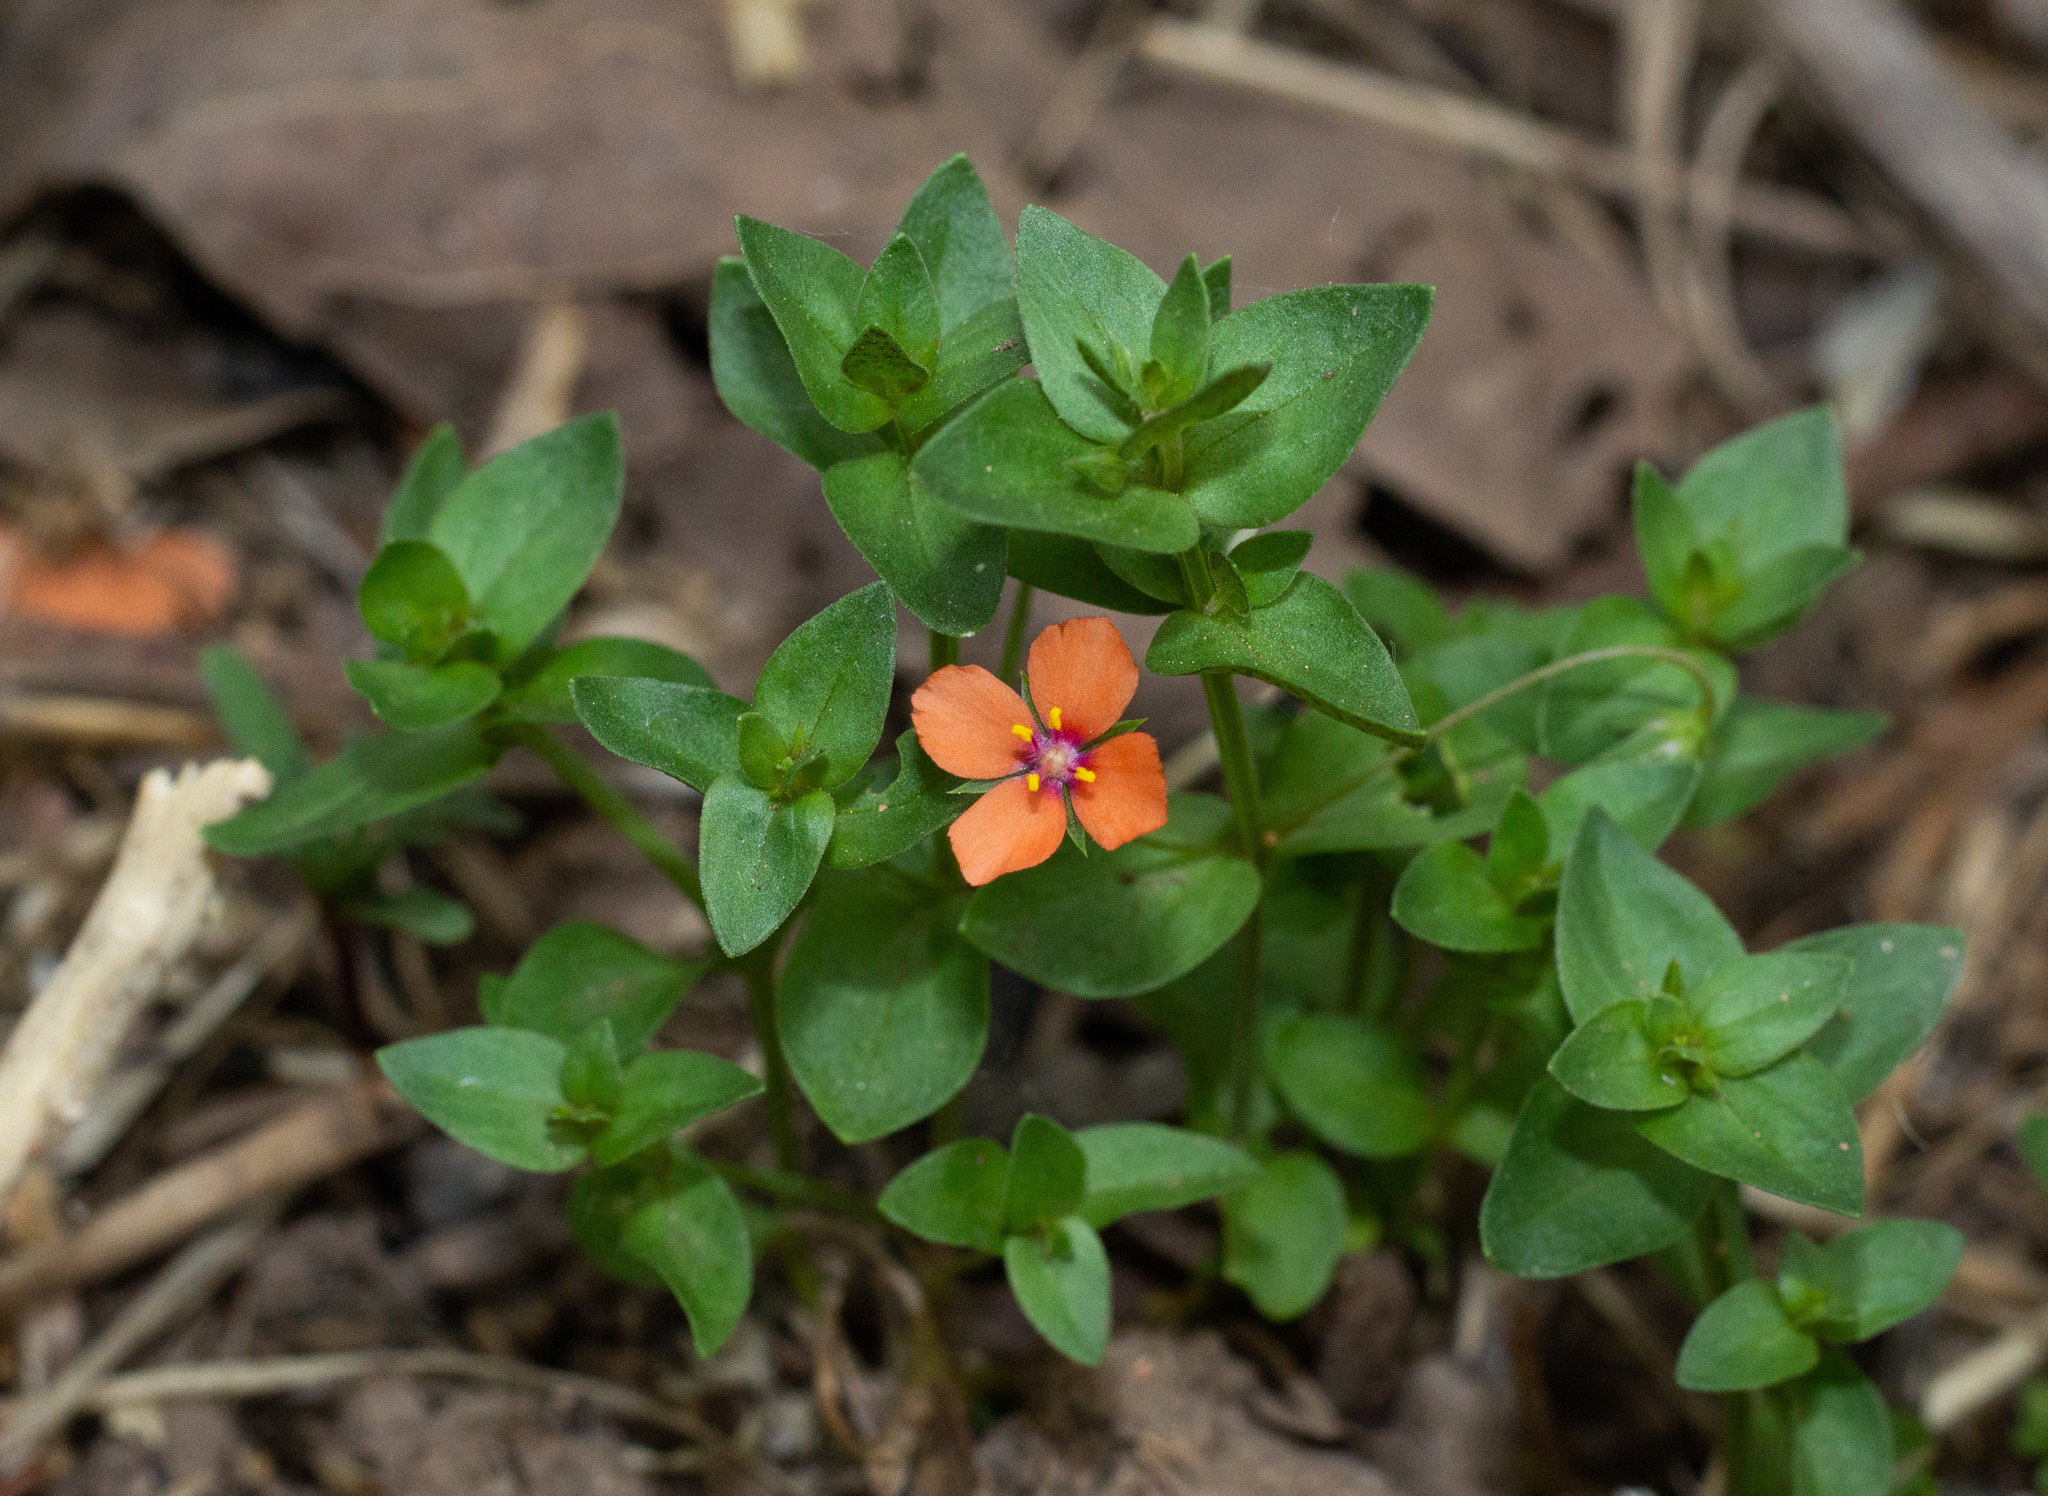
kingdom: Plantae
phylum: Tracheophyta
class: Magnoliopsida
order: Ericales
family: Primulaceae
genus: Lysimachia
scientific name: Lysimachia arvensis
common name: Scarlet pimpernel
